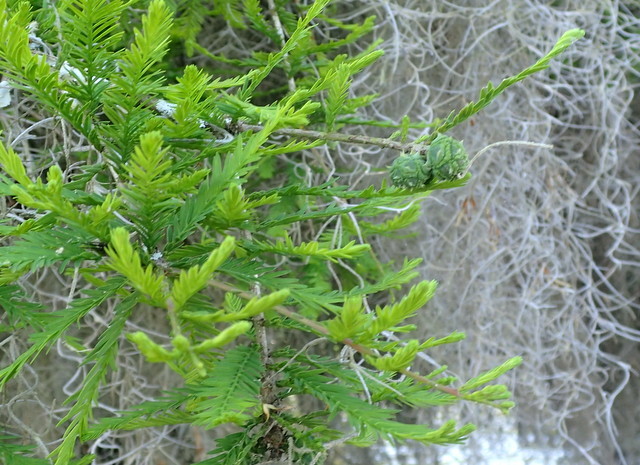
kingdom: Plantae
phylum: Tracheophyta
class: Pinopsida
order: Pinales
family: Cupressaceae
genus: Taxodium
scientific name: Taxodium distichum
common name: Bald cypress
